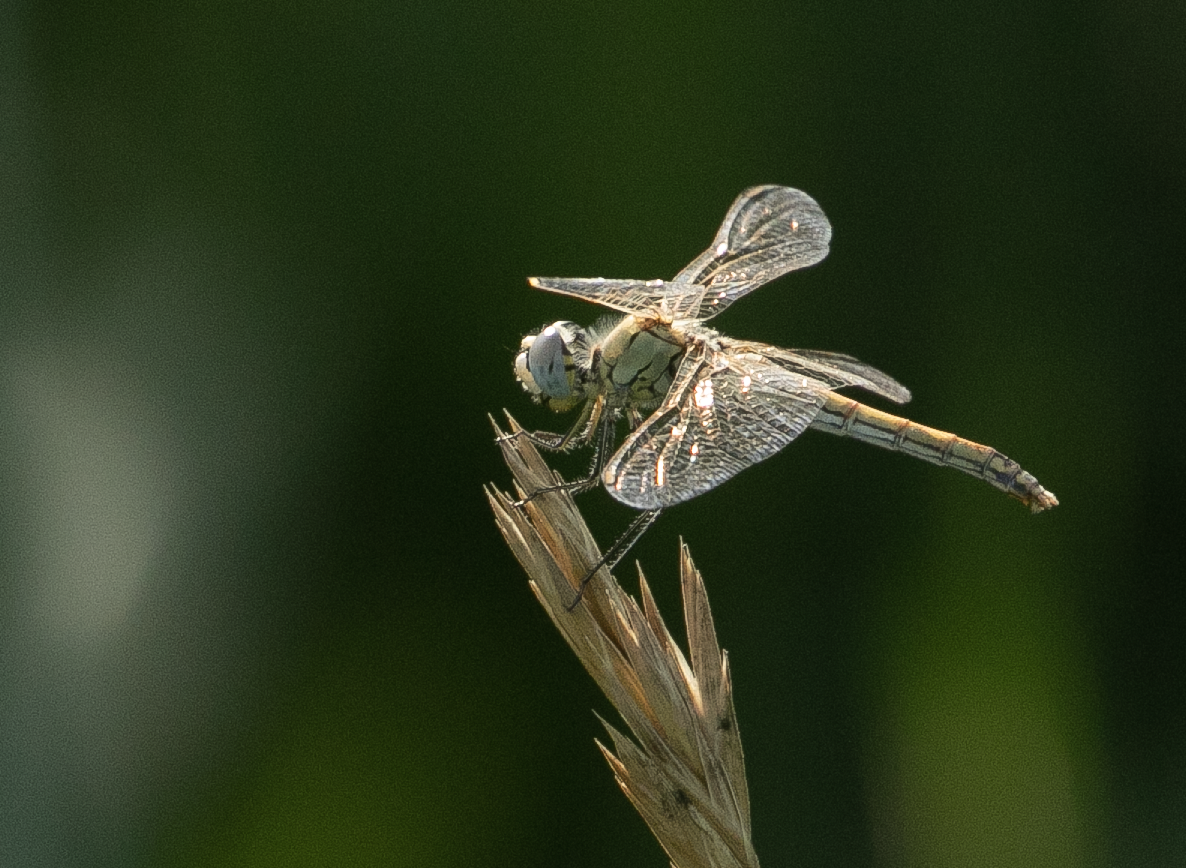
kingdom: Animalia
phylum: Arthropoda
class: Insecta
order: Odonata
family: Libellulidae
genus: Sympetrum
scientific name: Sympetrum fonscolombii
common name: Red-veined darter
